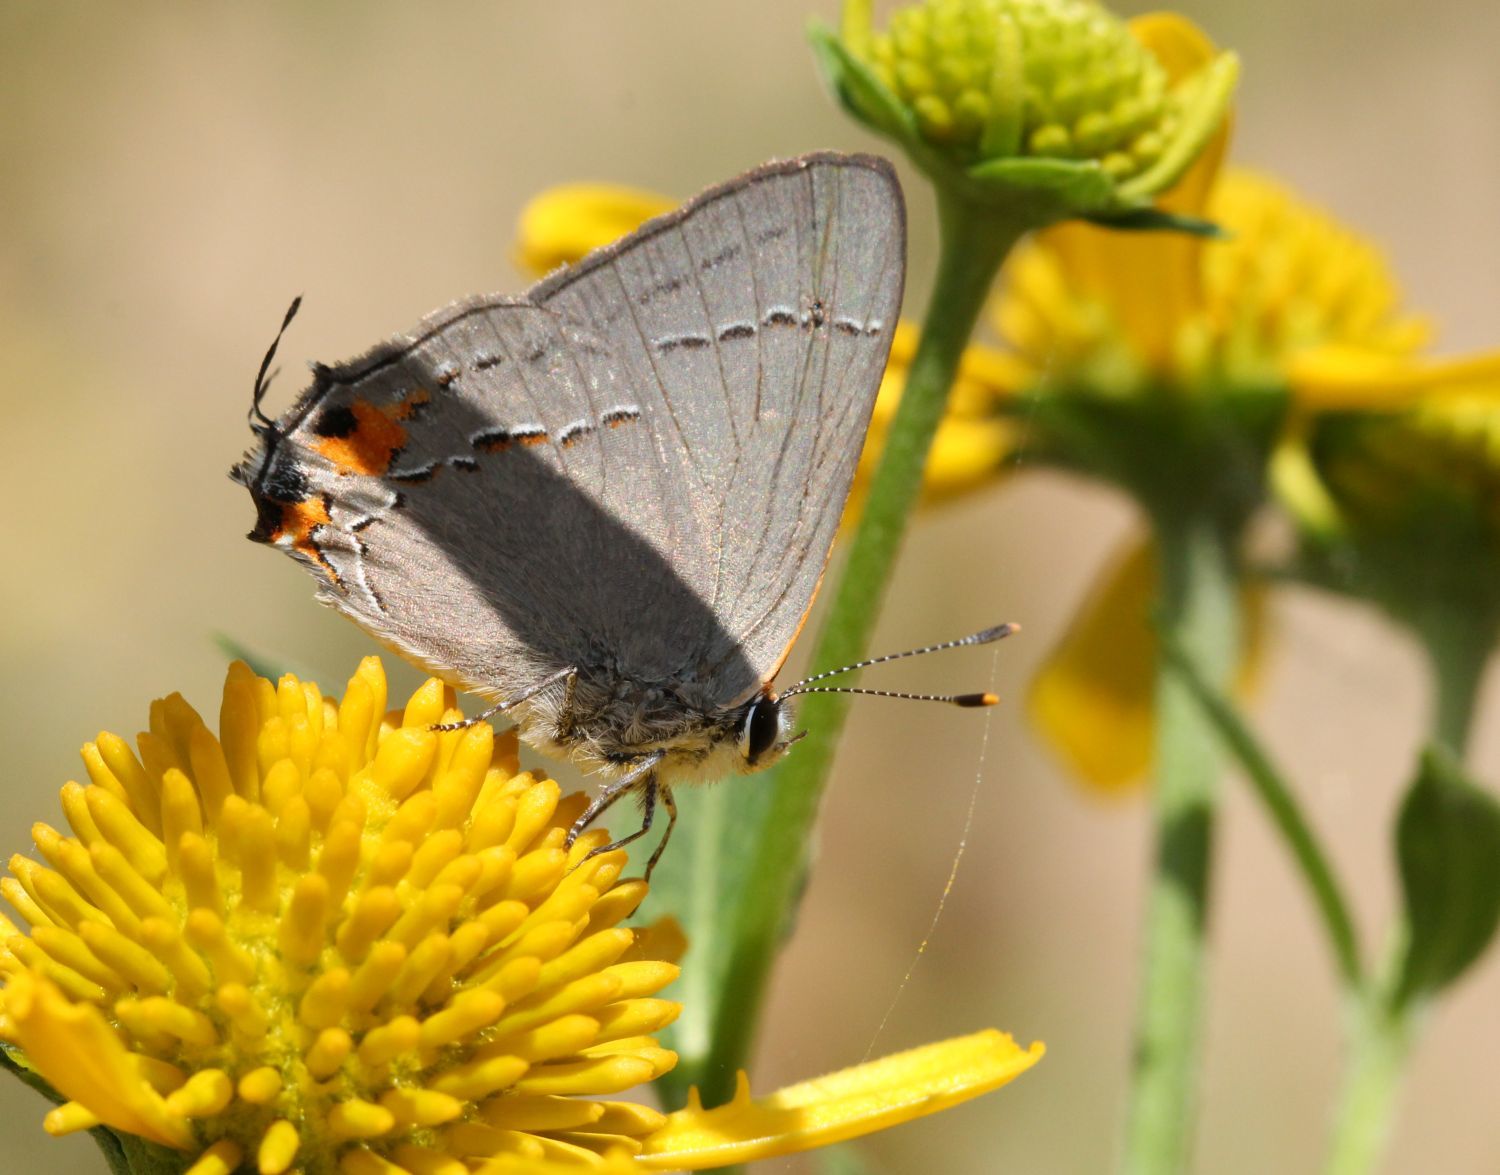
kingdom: Animalia
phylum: Arthropoda
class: Insecta
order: Lepidoptera
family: Lycaenidae
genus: Strymon
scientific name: Strymon melinus
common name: Gray hairstreak
